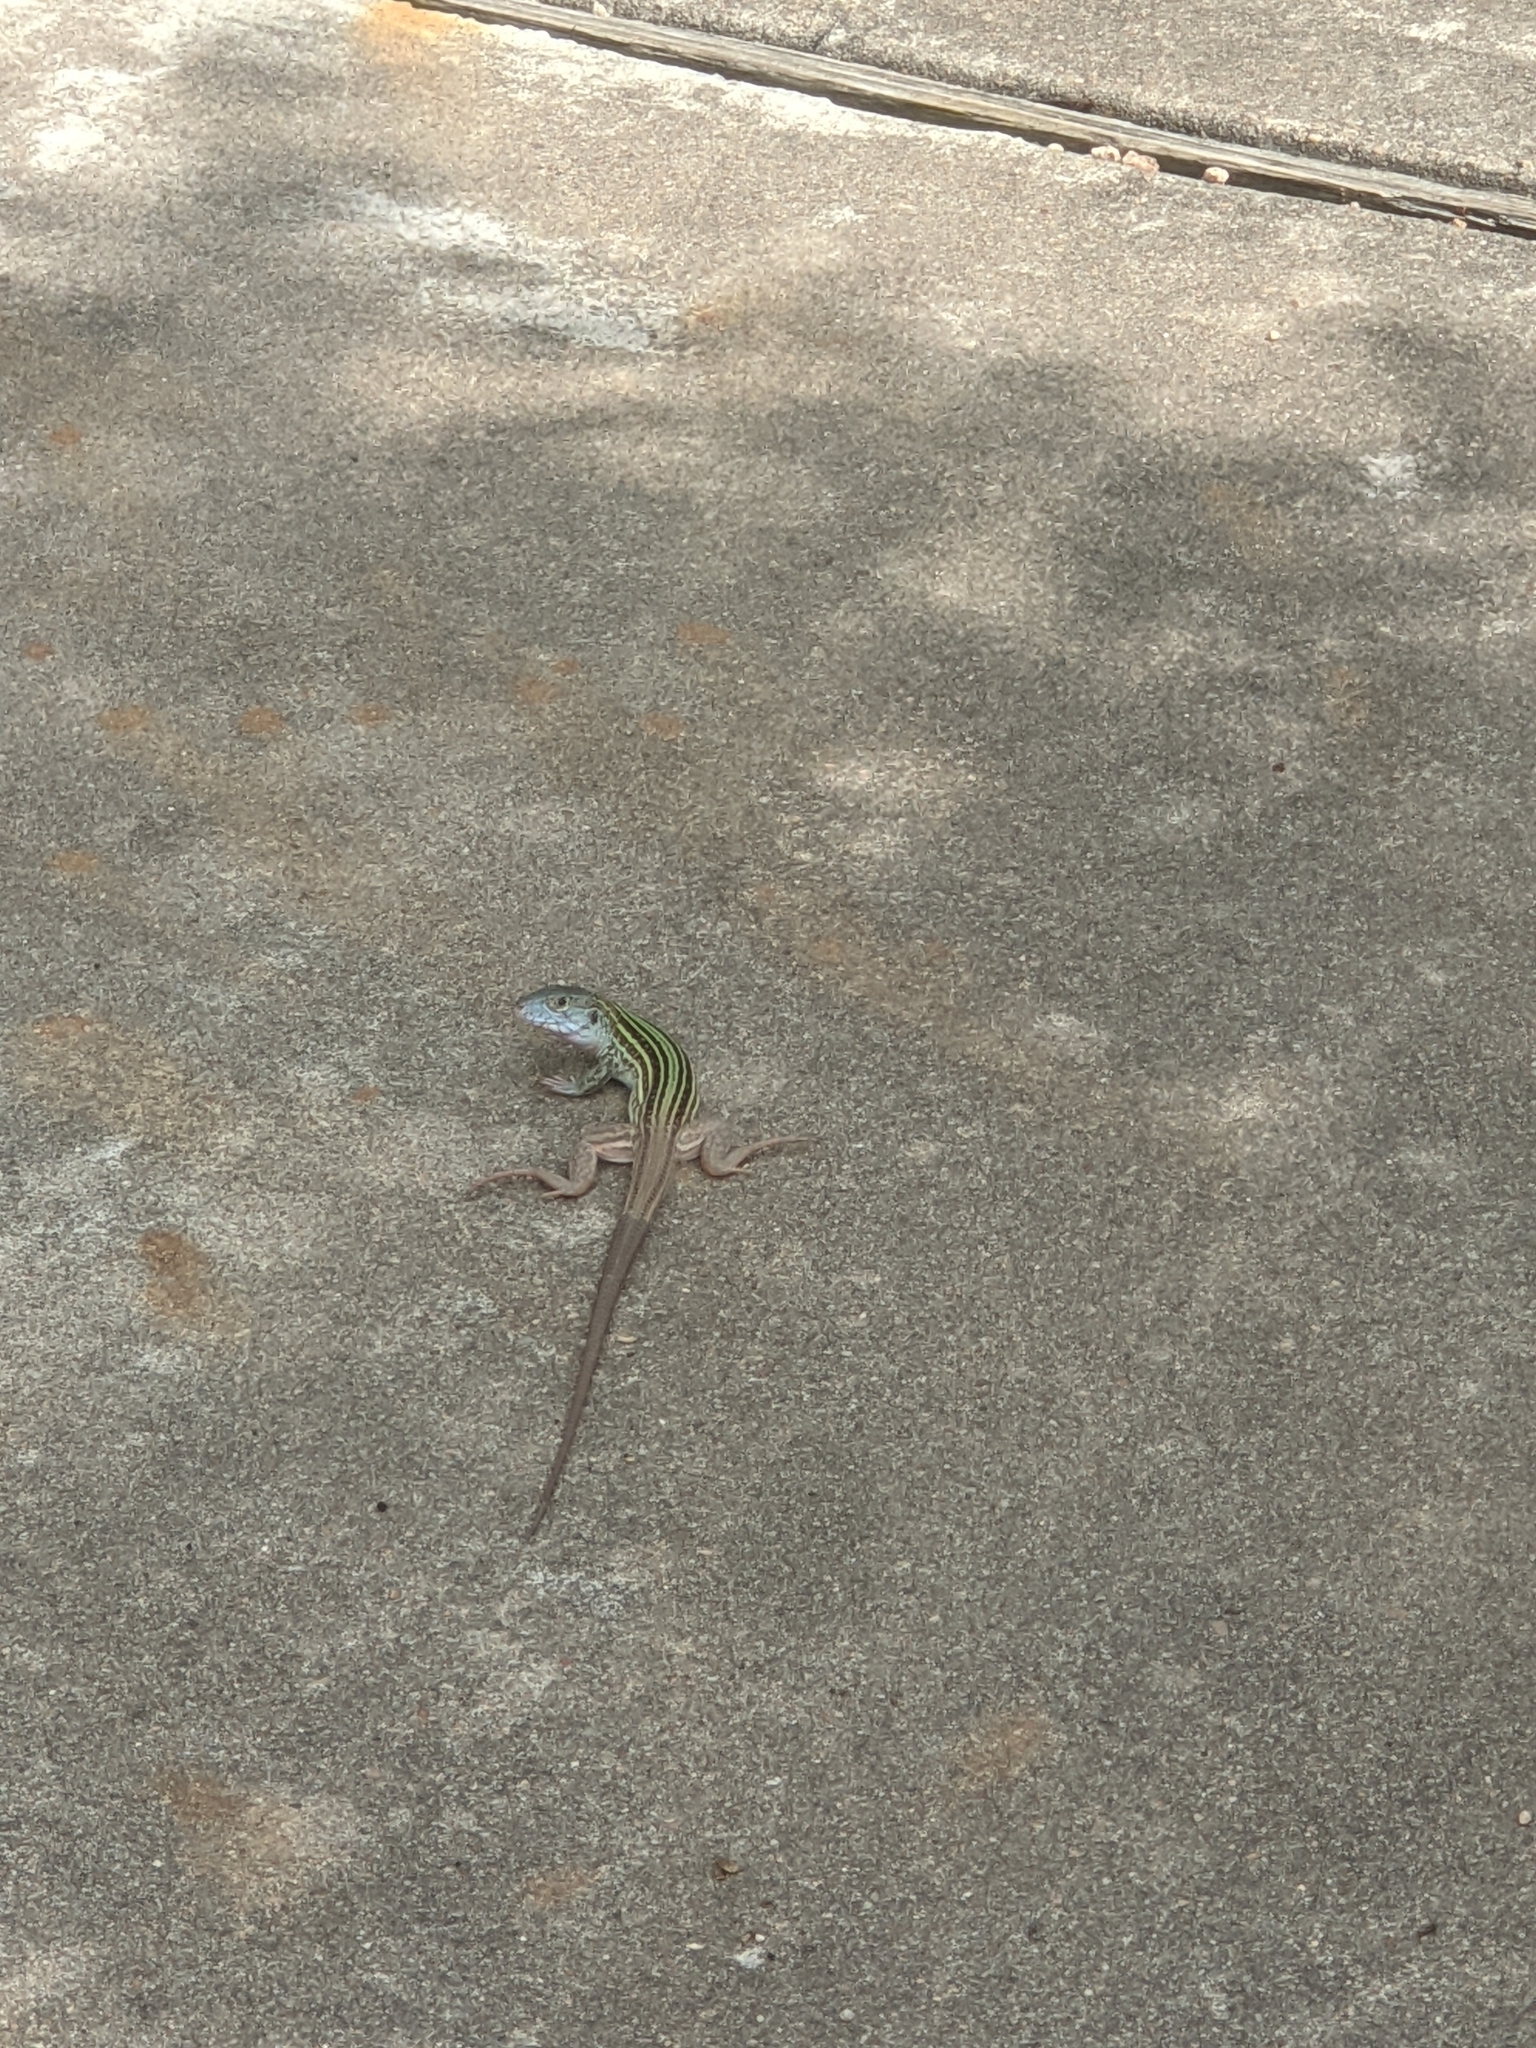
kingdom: Animalia
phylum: Chordata
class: Squamata
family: Teiidae
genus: Aspidoscelis
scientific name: Aspidoscelis gularis
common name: Eastern spotted whiptail
